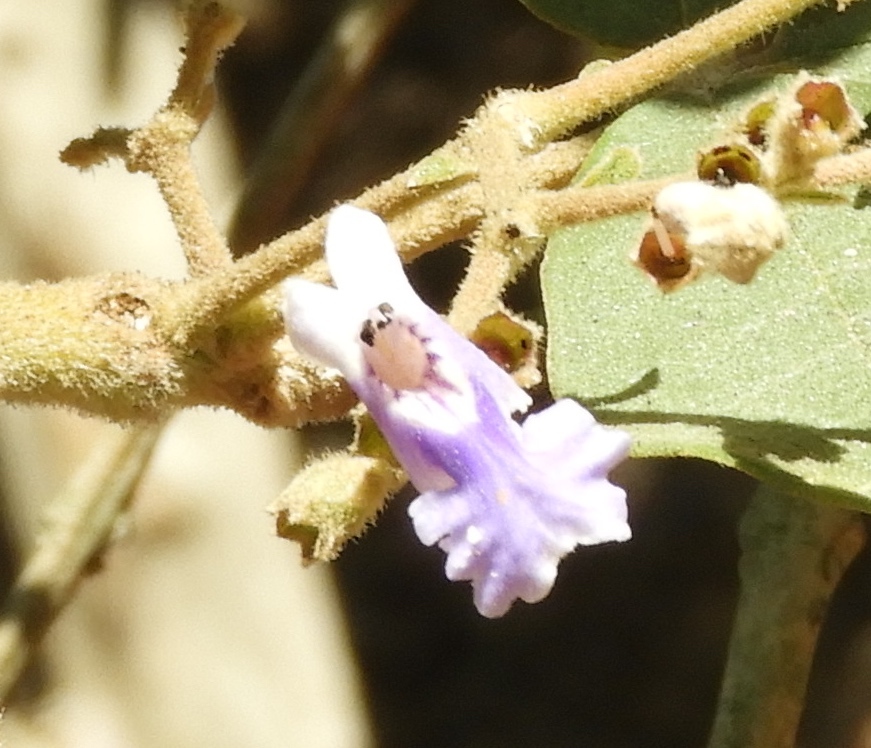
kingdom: Plantae
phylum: Tracheophyta
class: Magnoliopsida
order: Lamiales
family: Lamiaceae
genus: Vitex
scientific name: Vitex mollis
